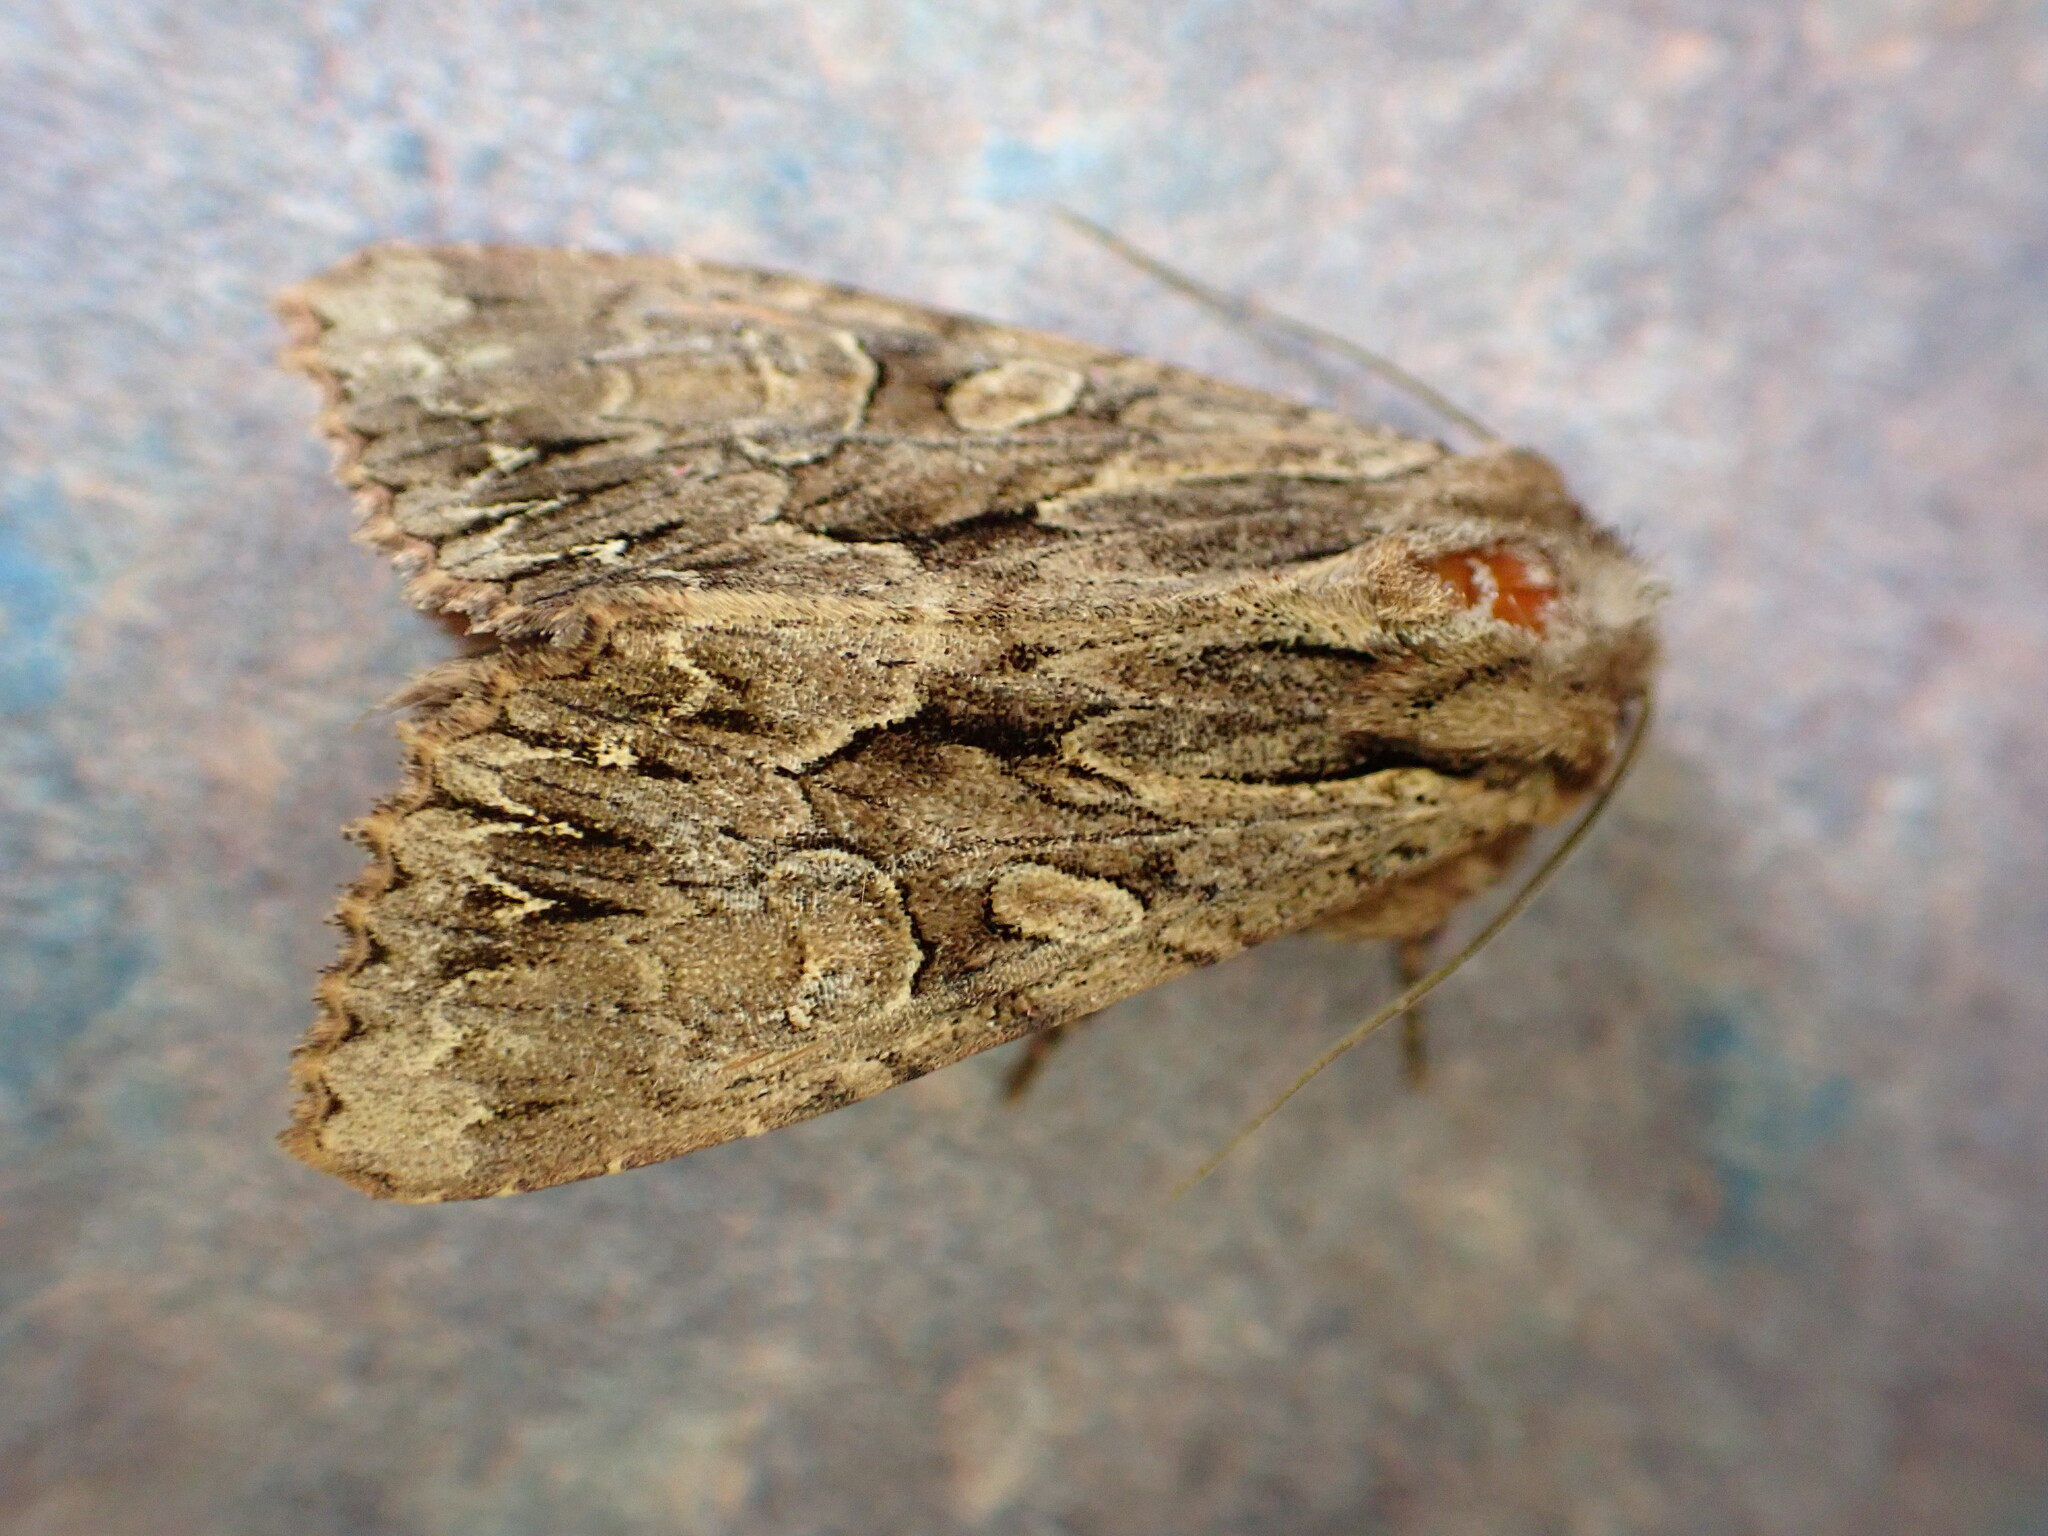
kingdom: Animalia
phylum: Arthropoda
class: Insecta
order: Lepidoptera
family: Noctuidae
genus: Apamea
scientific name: Apamea monoglypha
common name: Dark arches
